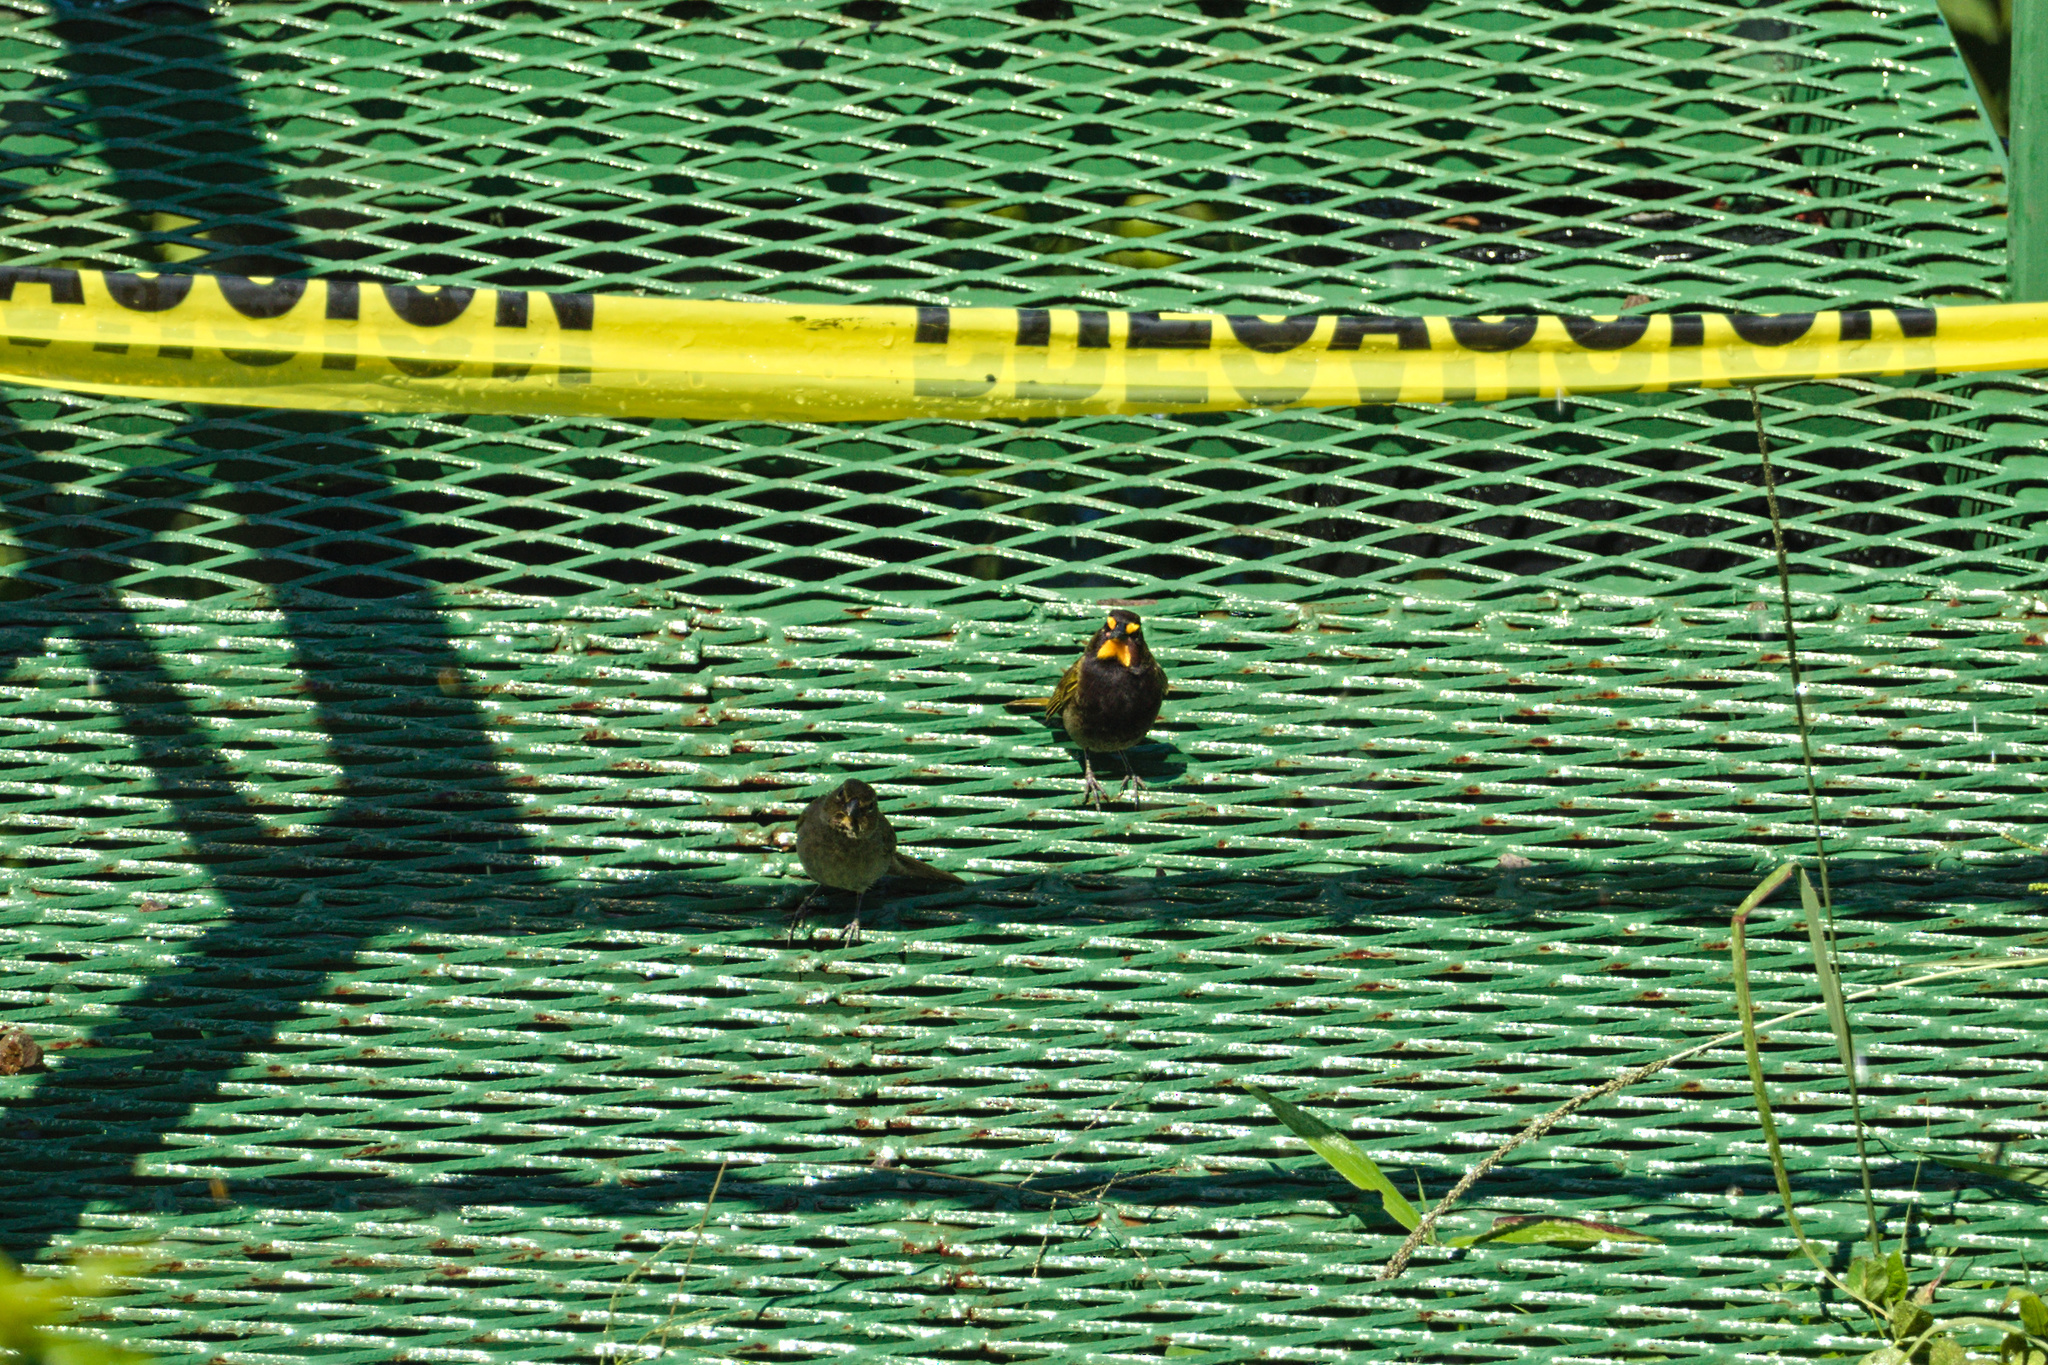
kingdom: Animalia
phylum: Chordata
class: Aves
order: Passeriformes
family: Thraupidae
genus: Tiaris
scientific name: Tiaris olivaceus
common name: Yellow-faced grassquit
